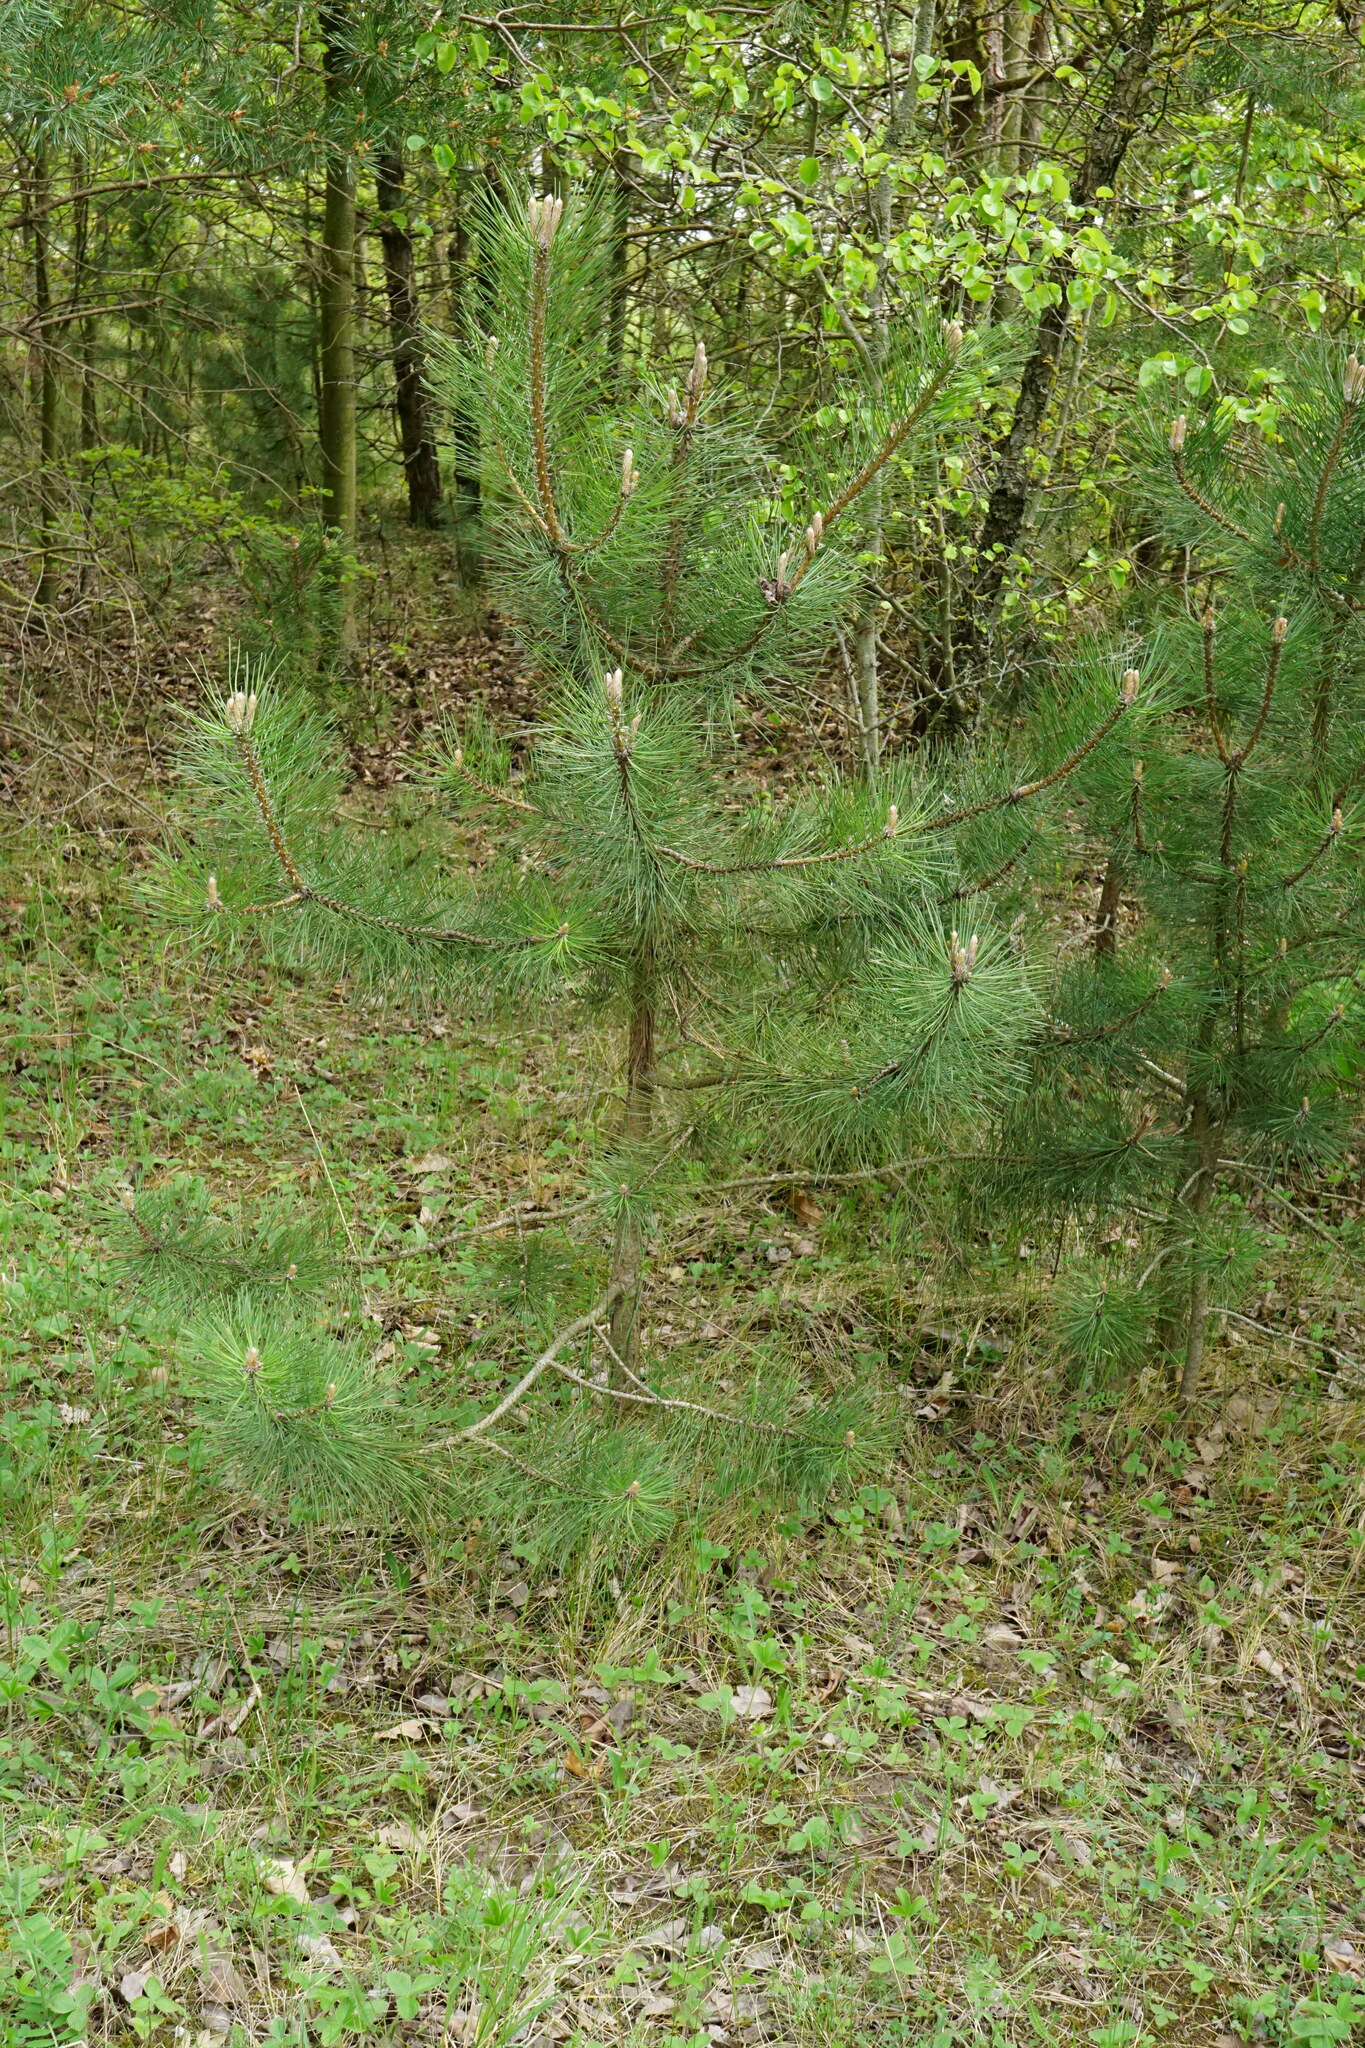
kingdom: Plantae
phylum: Tracheophyta
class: Pinopsida
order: Pinales
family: Pinaceae
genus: Pinus
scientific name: Pinus nigra
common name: Austrian pine
